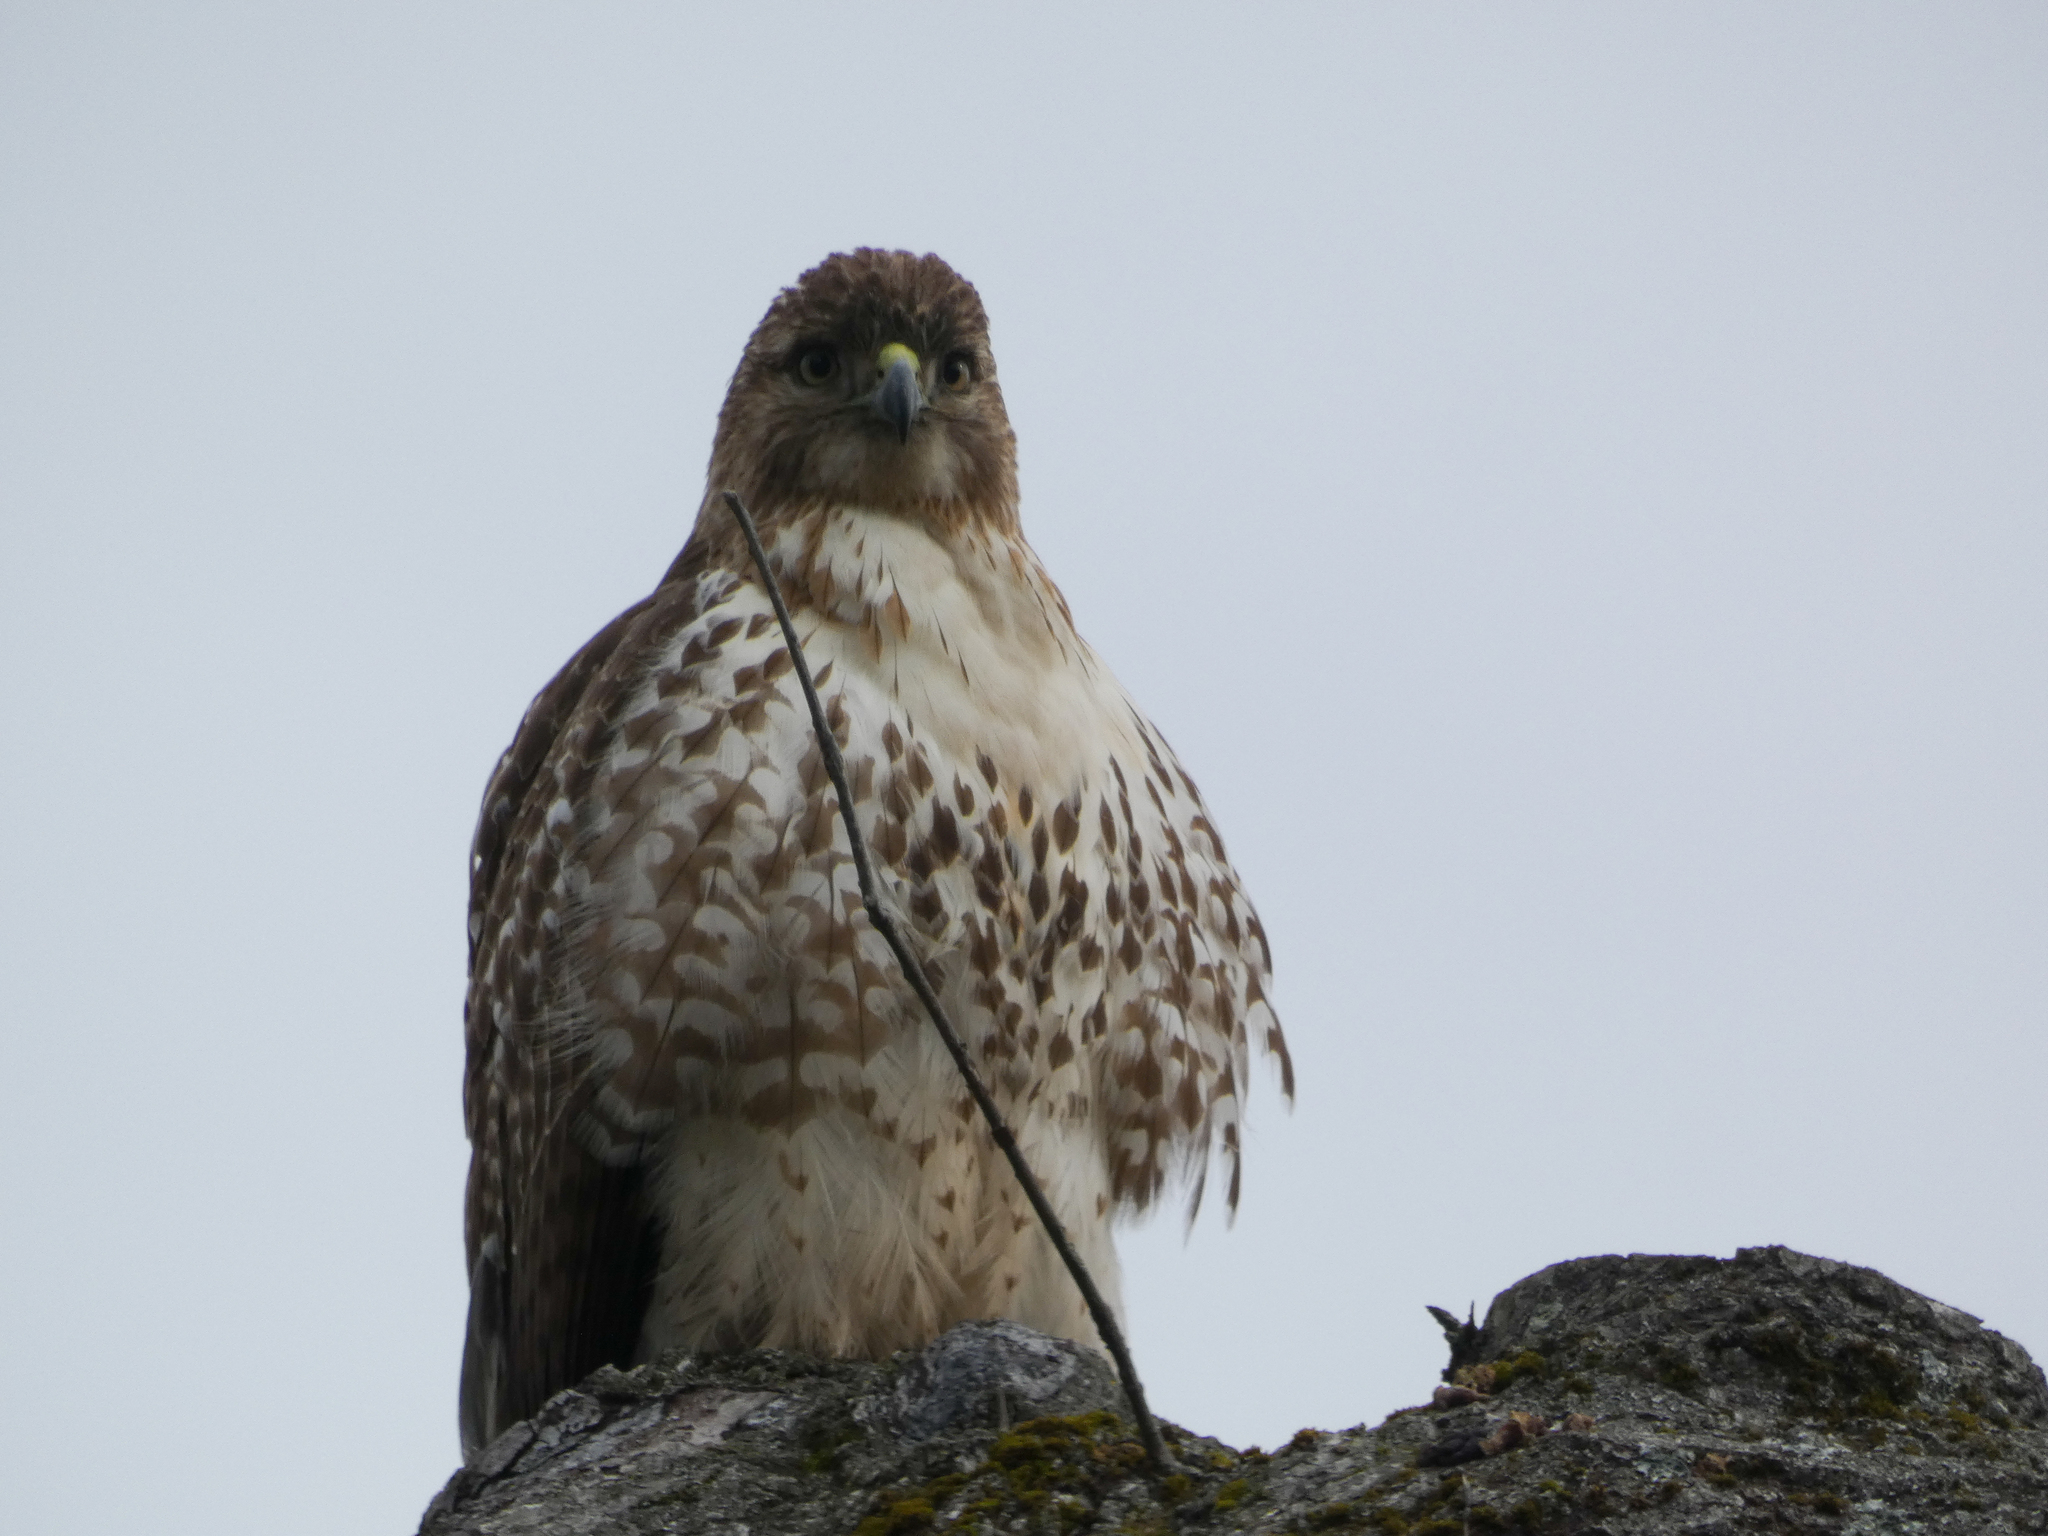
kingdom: Animalia
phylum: Chordata
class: Aves
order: Accipitriformes
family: Accipitridae
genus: Buteo
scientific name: Buteo jamaicensis
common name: Red-tailed hawk
